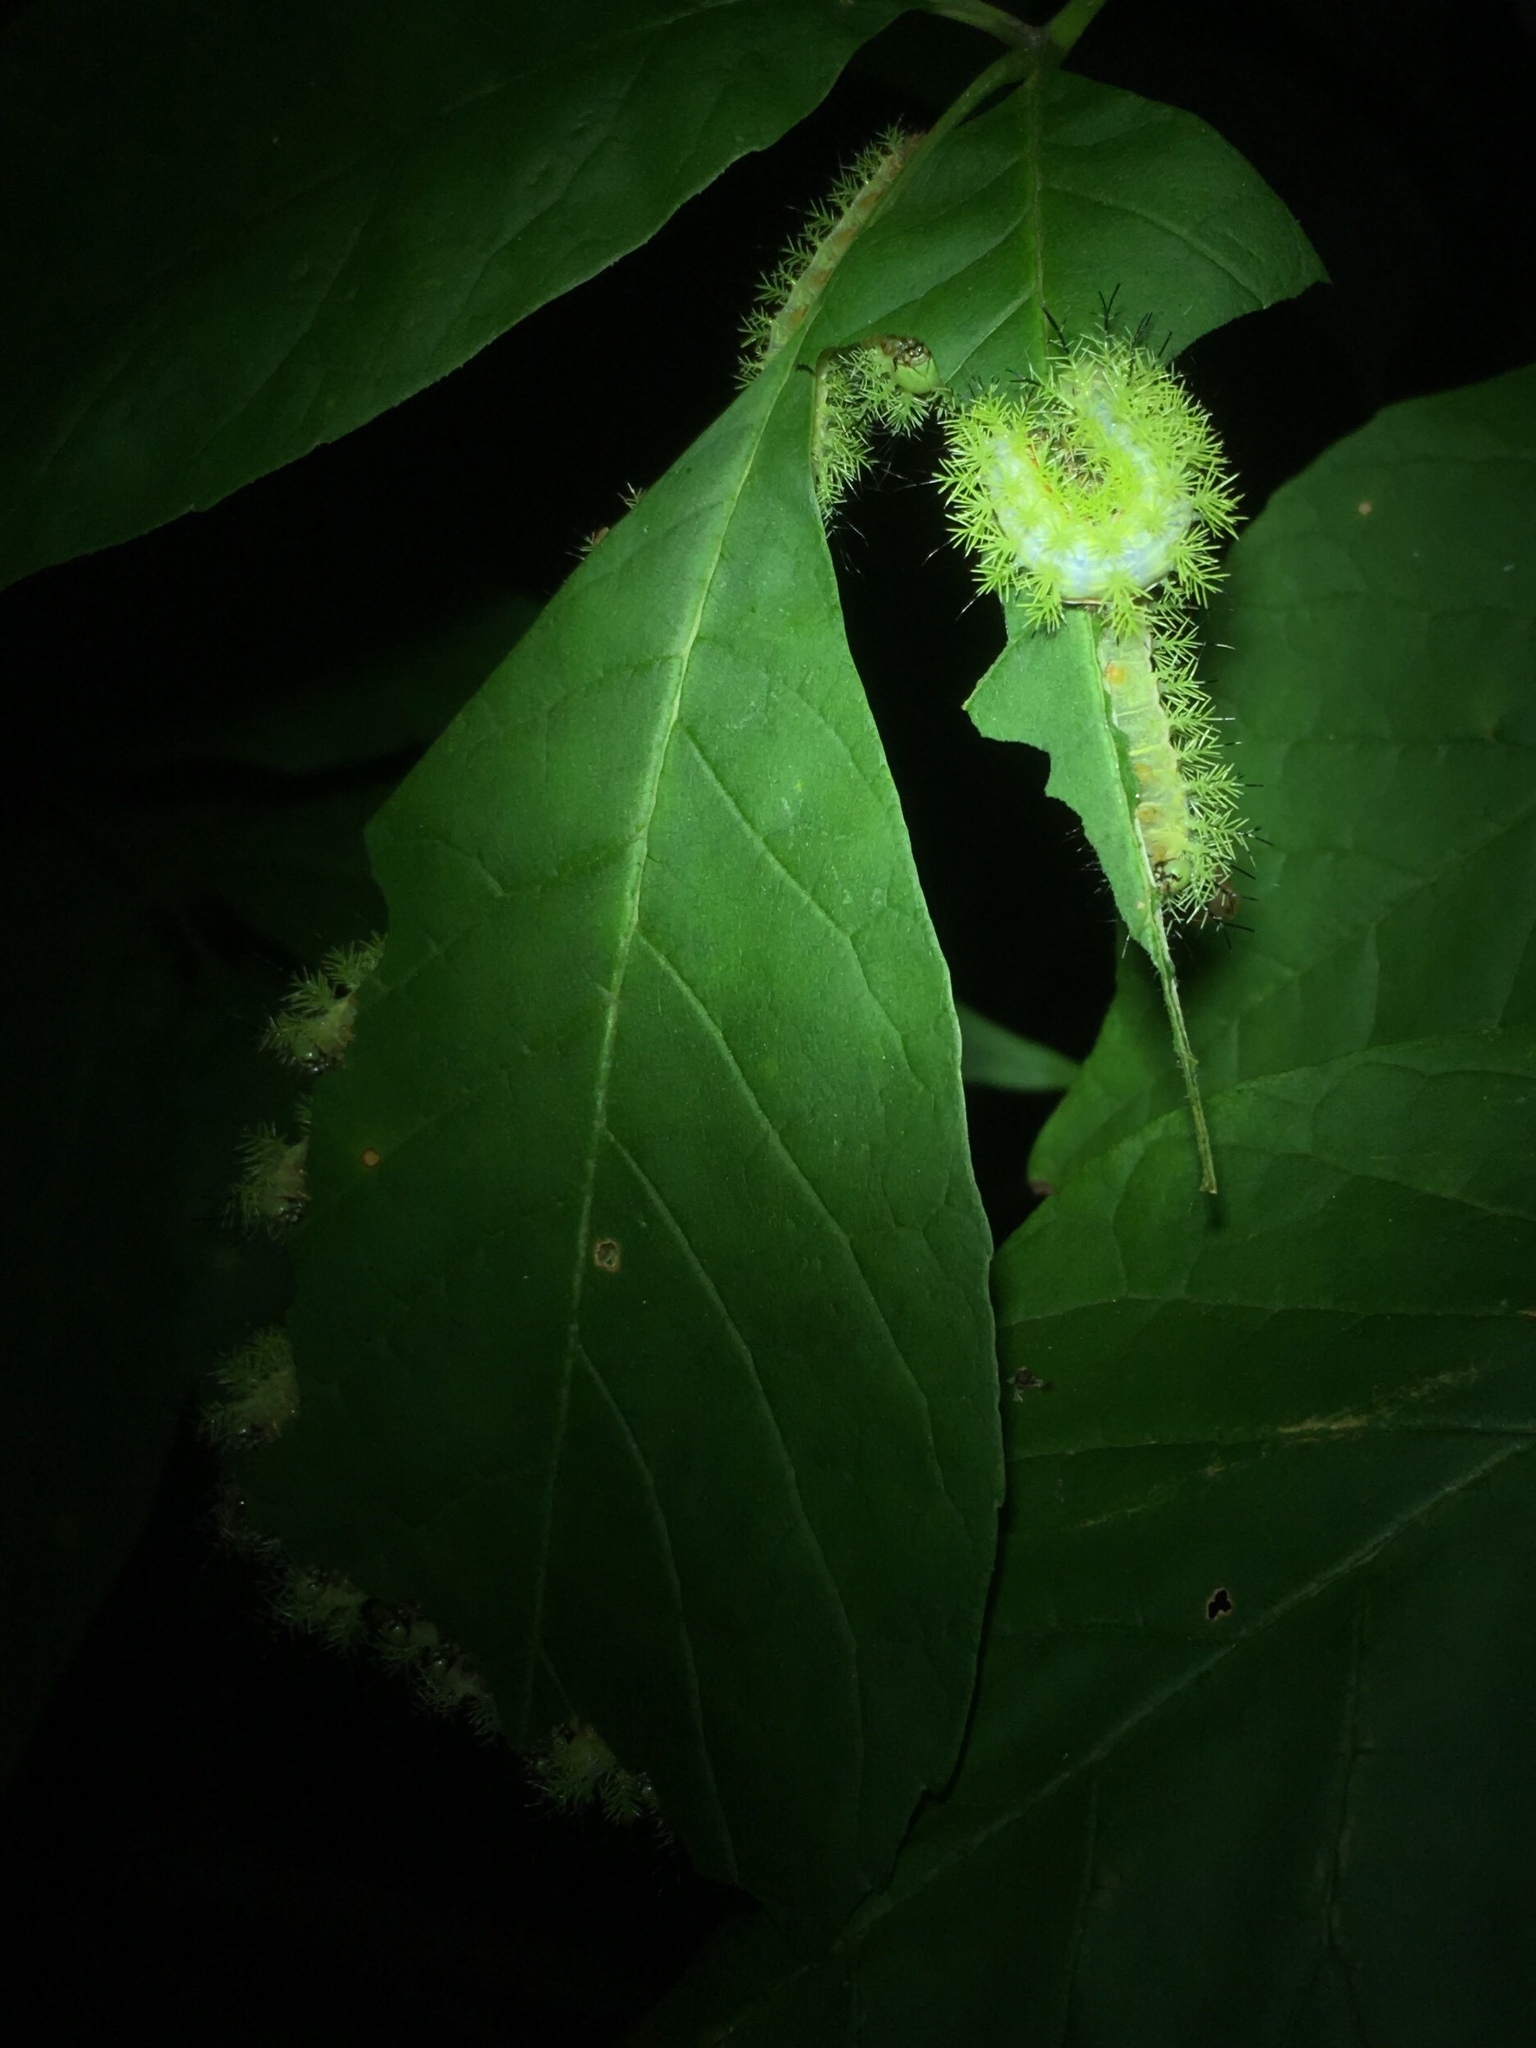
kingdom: Animalia
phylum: Arthropoda
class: Insecta
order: Lepidoptera
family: Saturniidae
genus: Automeris
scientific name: Automeris io
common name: Io moth
